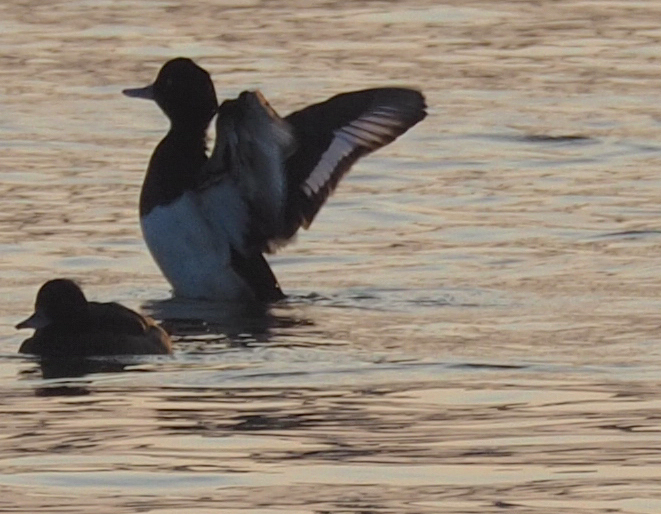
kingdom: Animalia
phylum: Chordata
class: Aves
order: Anseriformes
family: Anatidae
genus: Aythya
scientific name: Aythya fuligula
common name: Tufted duck
